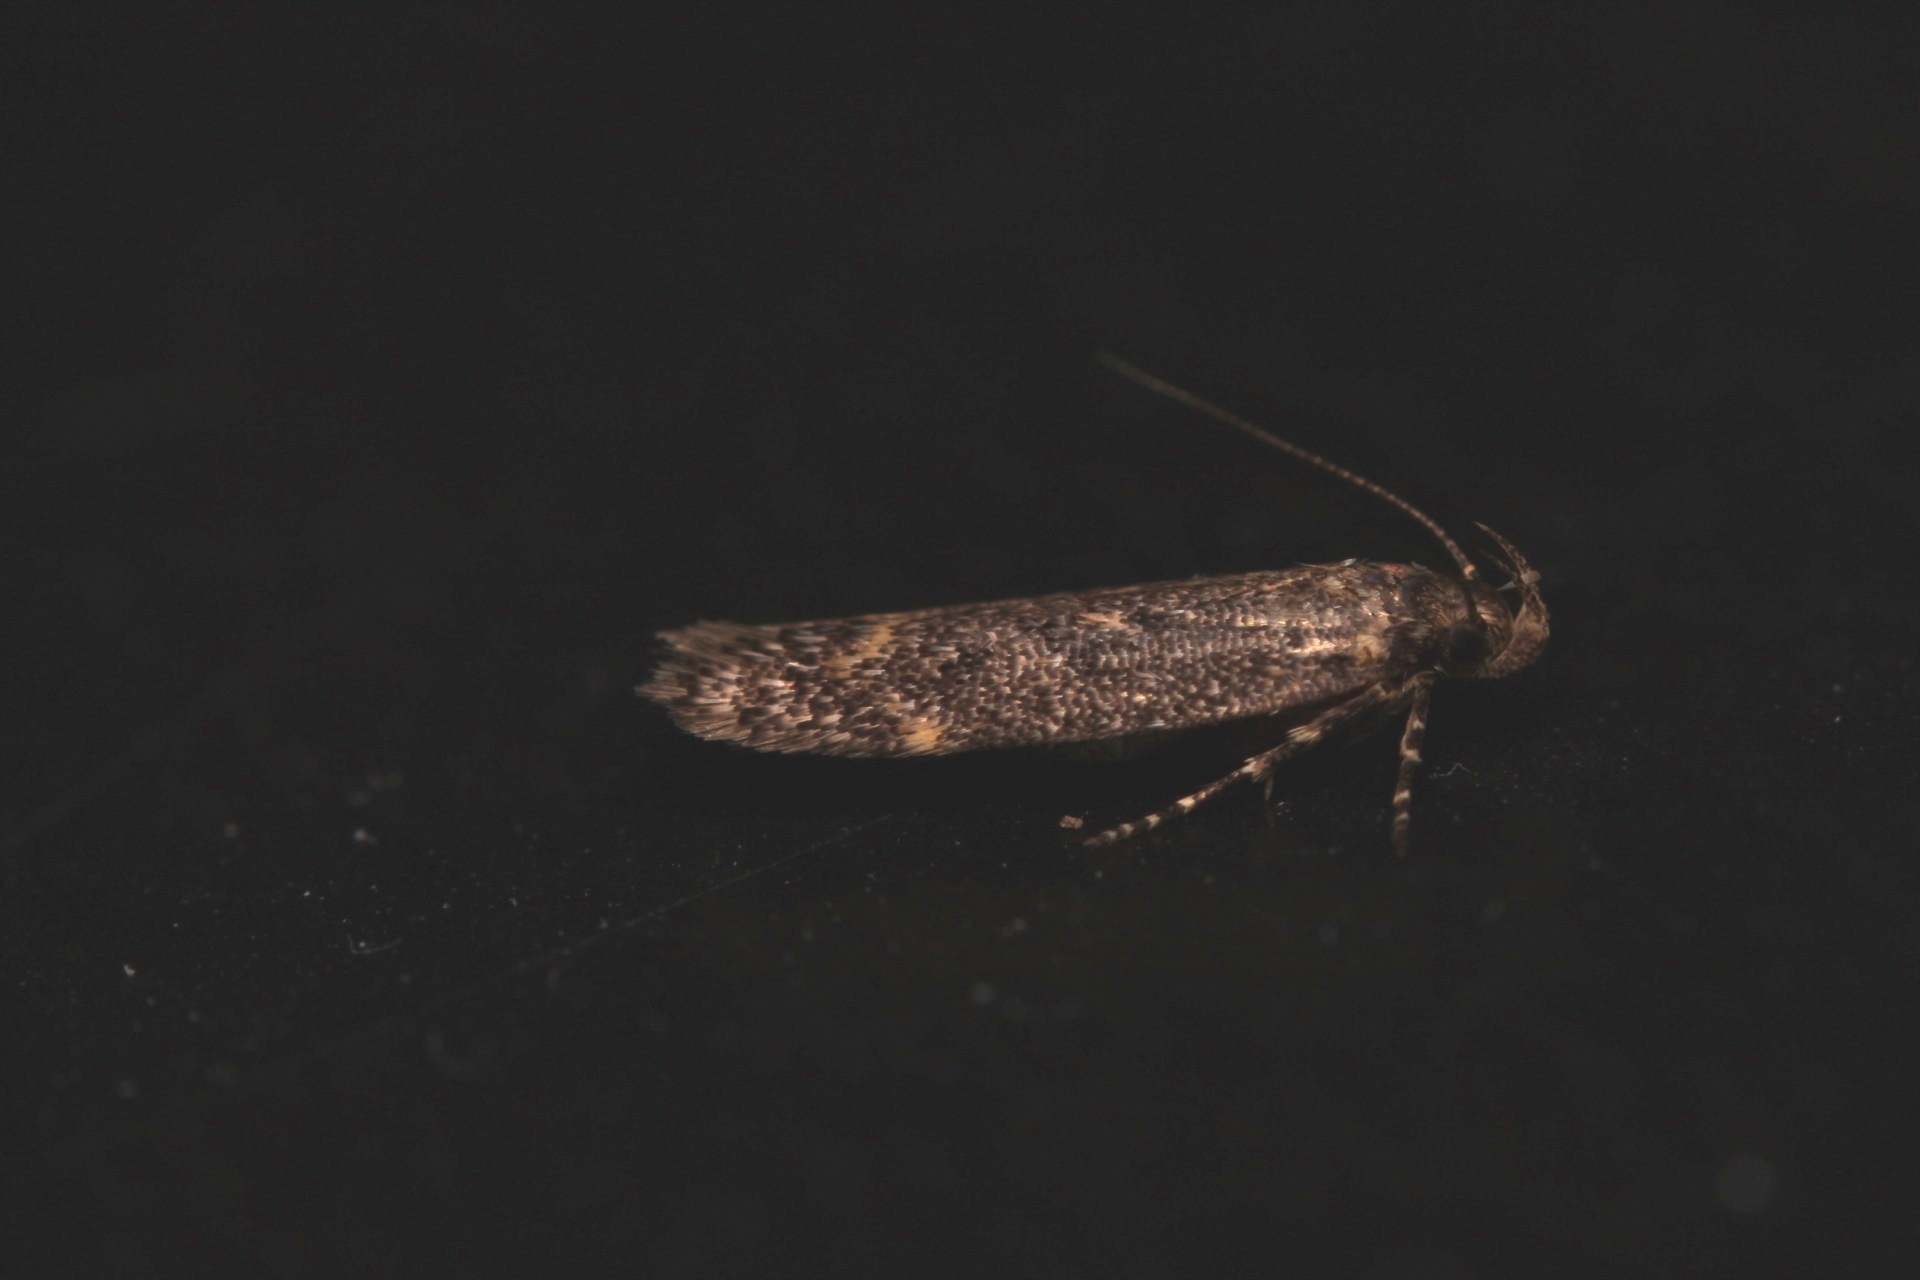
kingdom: Animalia
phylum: Arthropoda
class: Insecta
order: Lepidoptera
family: Gelechiidae
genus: Bryotropha
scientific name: Bryotropha affinis
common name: Dark groundling
